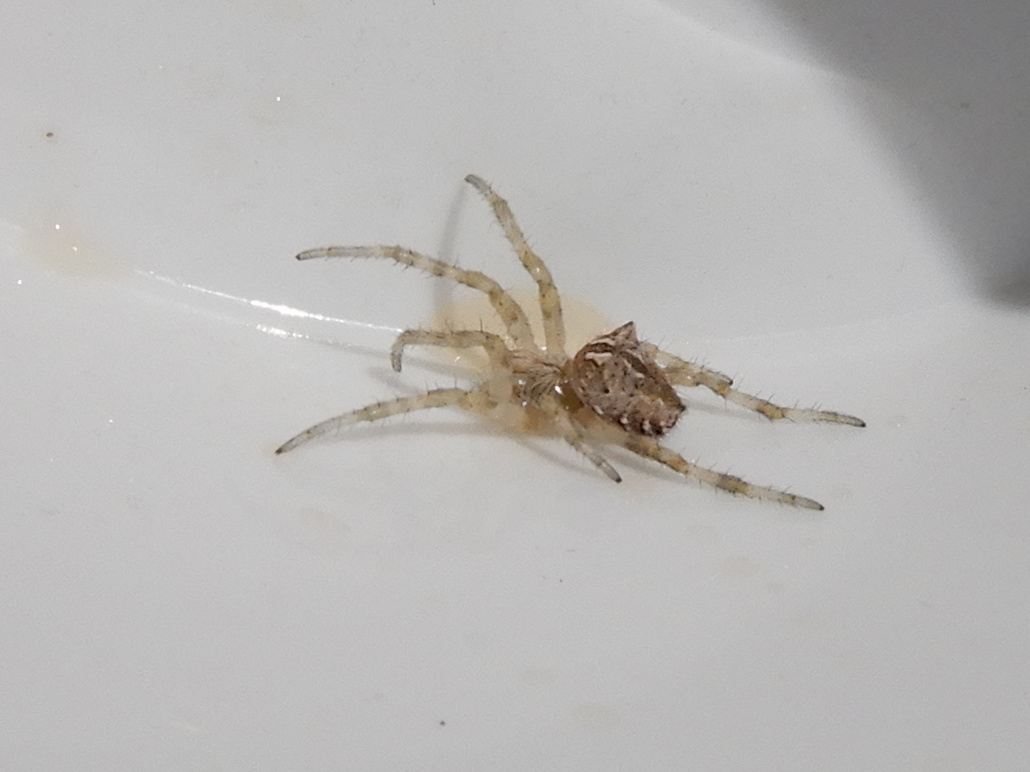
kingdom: Animalia
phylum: Arthropoda
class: Arachnida
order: Araneae
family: Araneidae
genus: Backobourkia
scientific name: Backobourkia brouni
